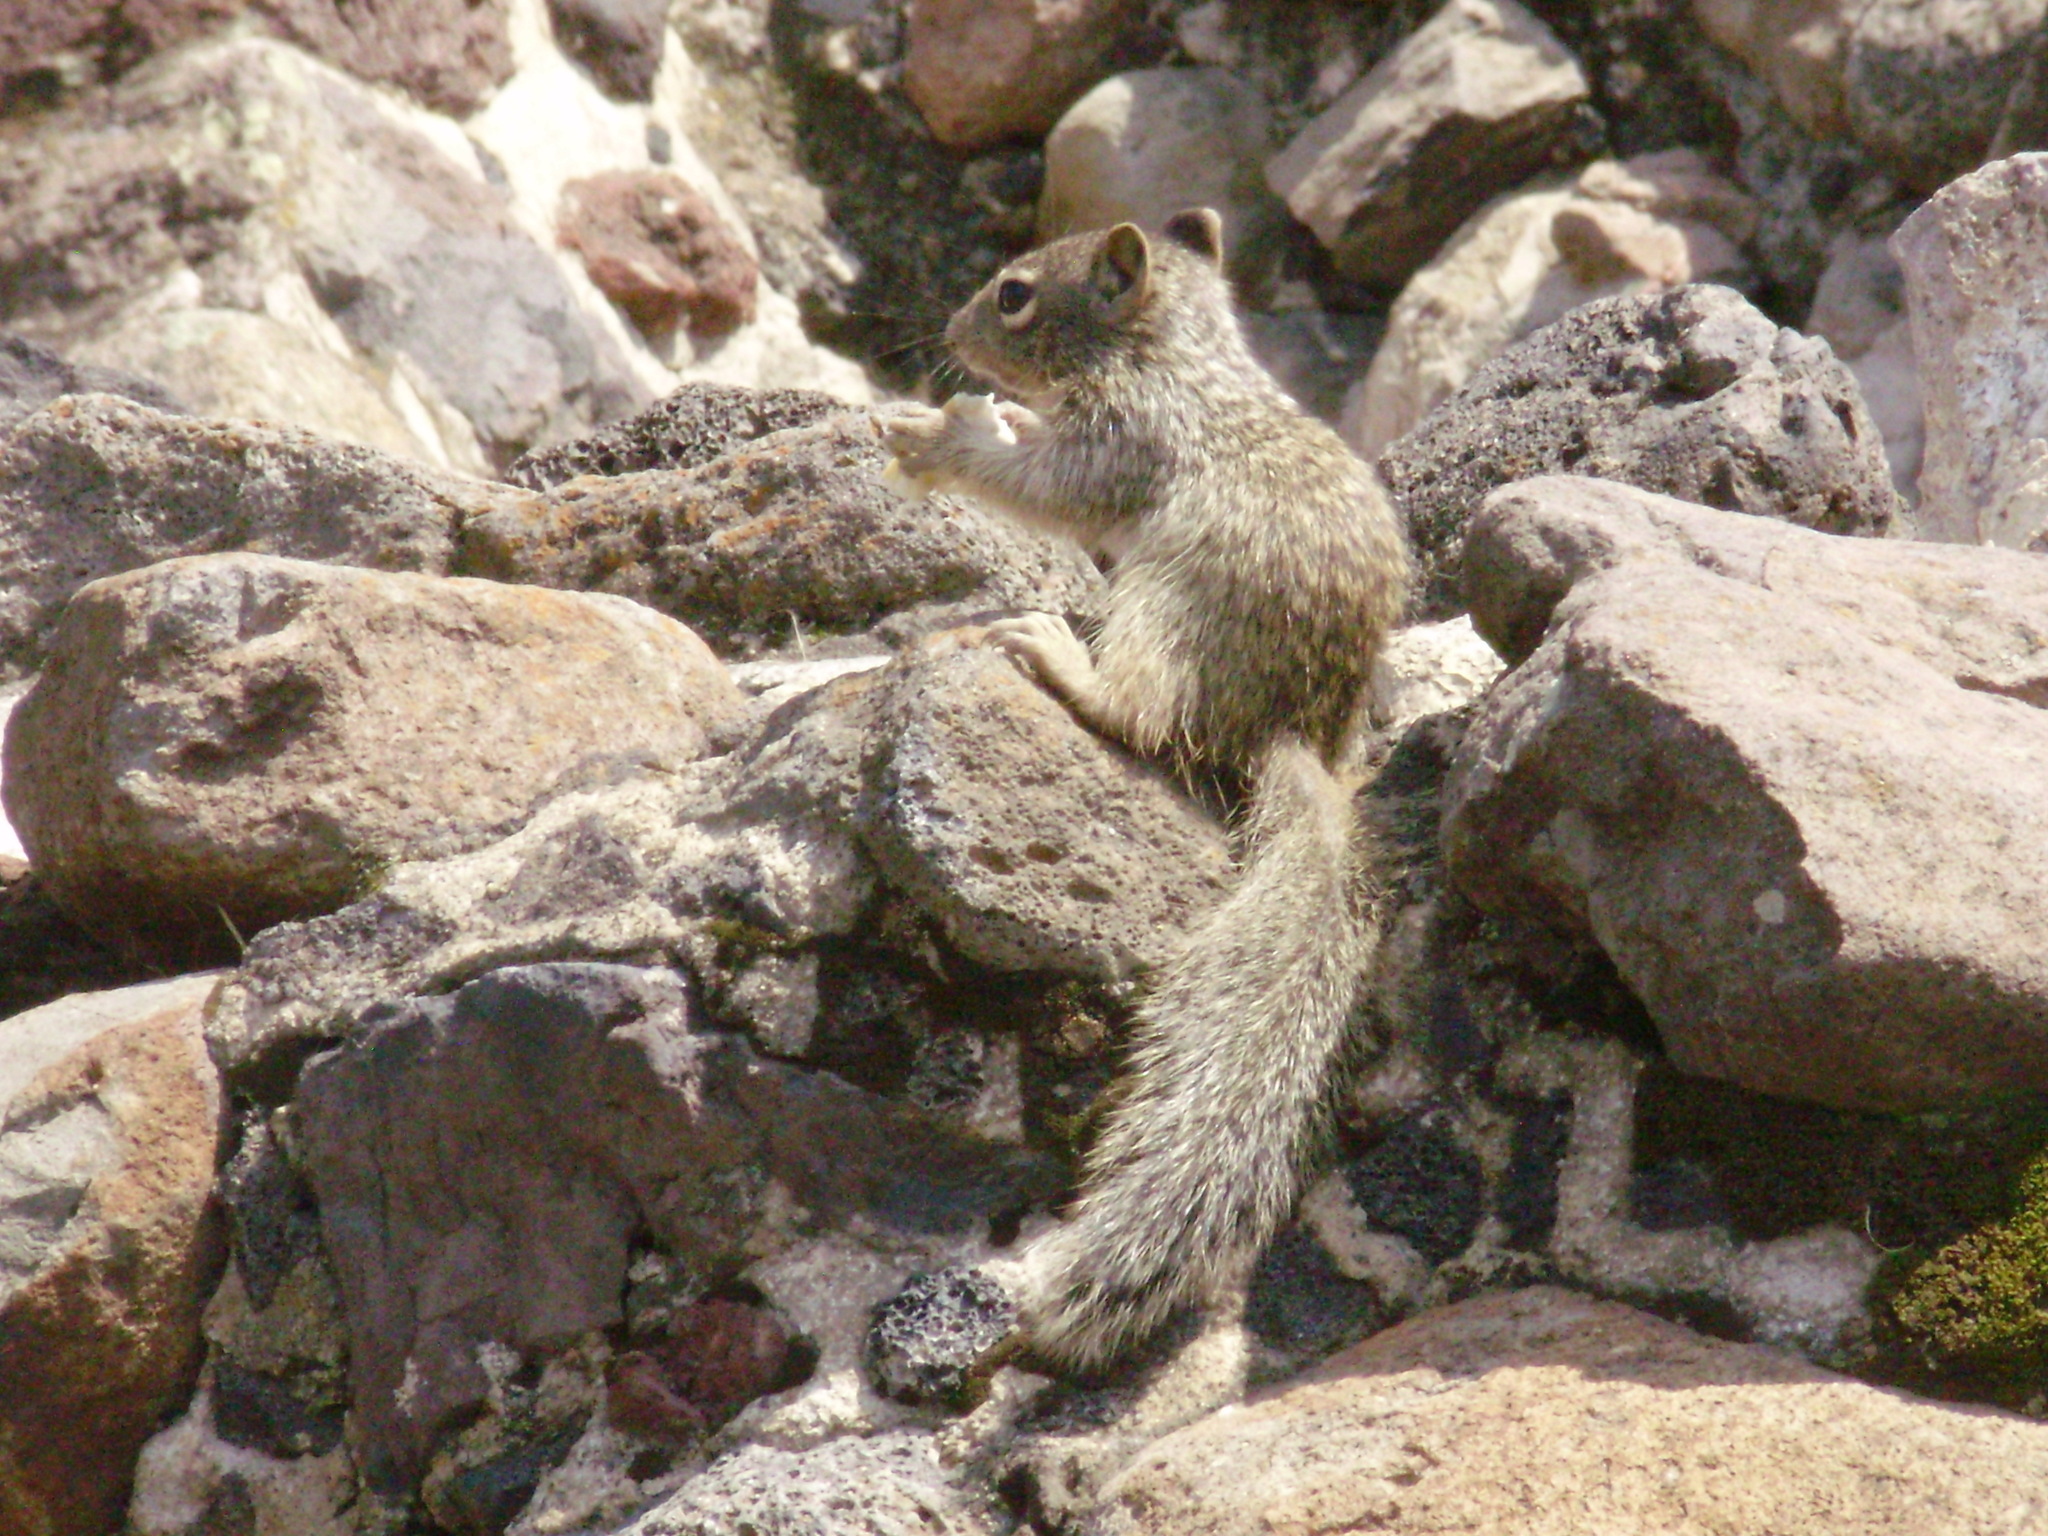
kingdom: Animalia
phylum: Chordata
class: Mammalia
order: Rodentia
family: Sciuridae
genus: Otospermophilus
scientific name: Otospermophilus variegatus
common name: Rock squirrel
